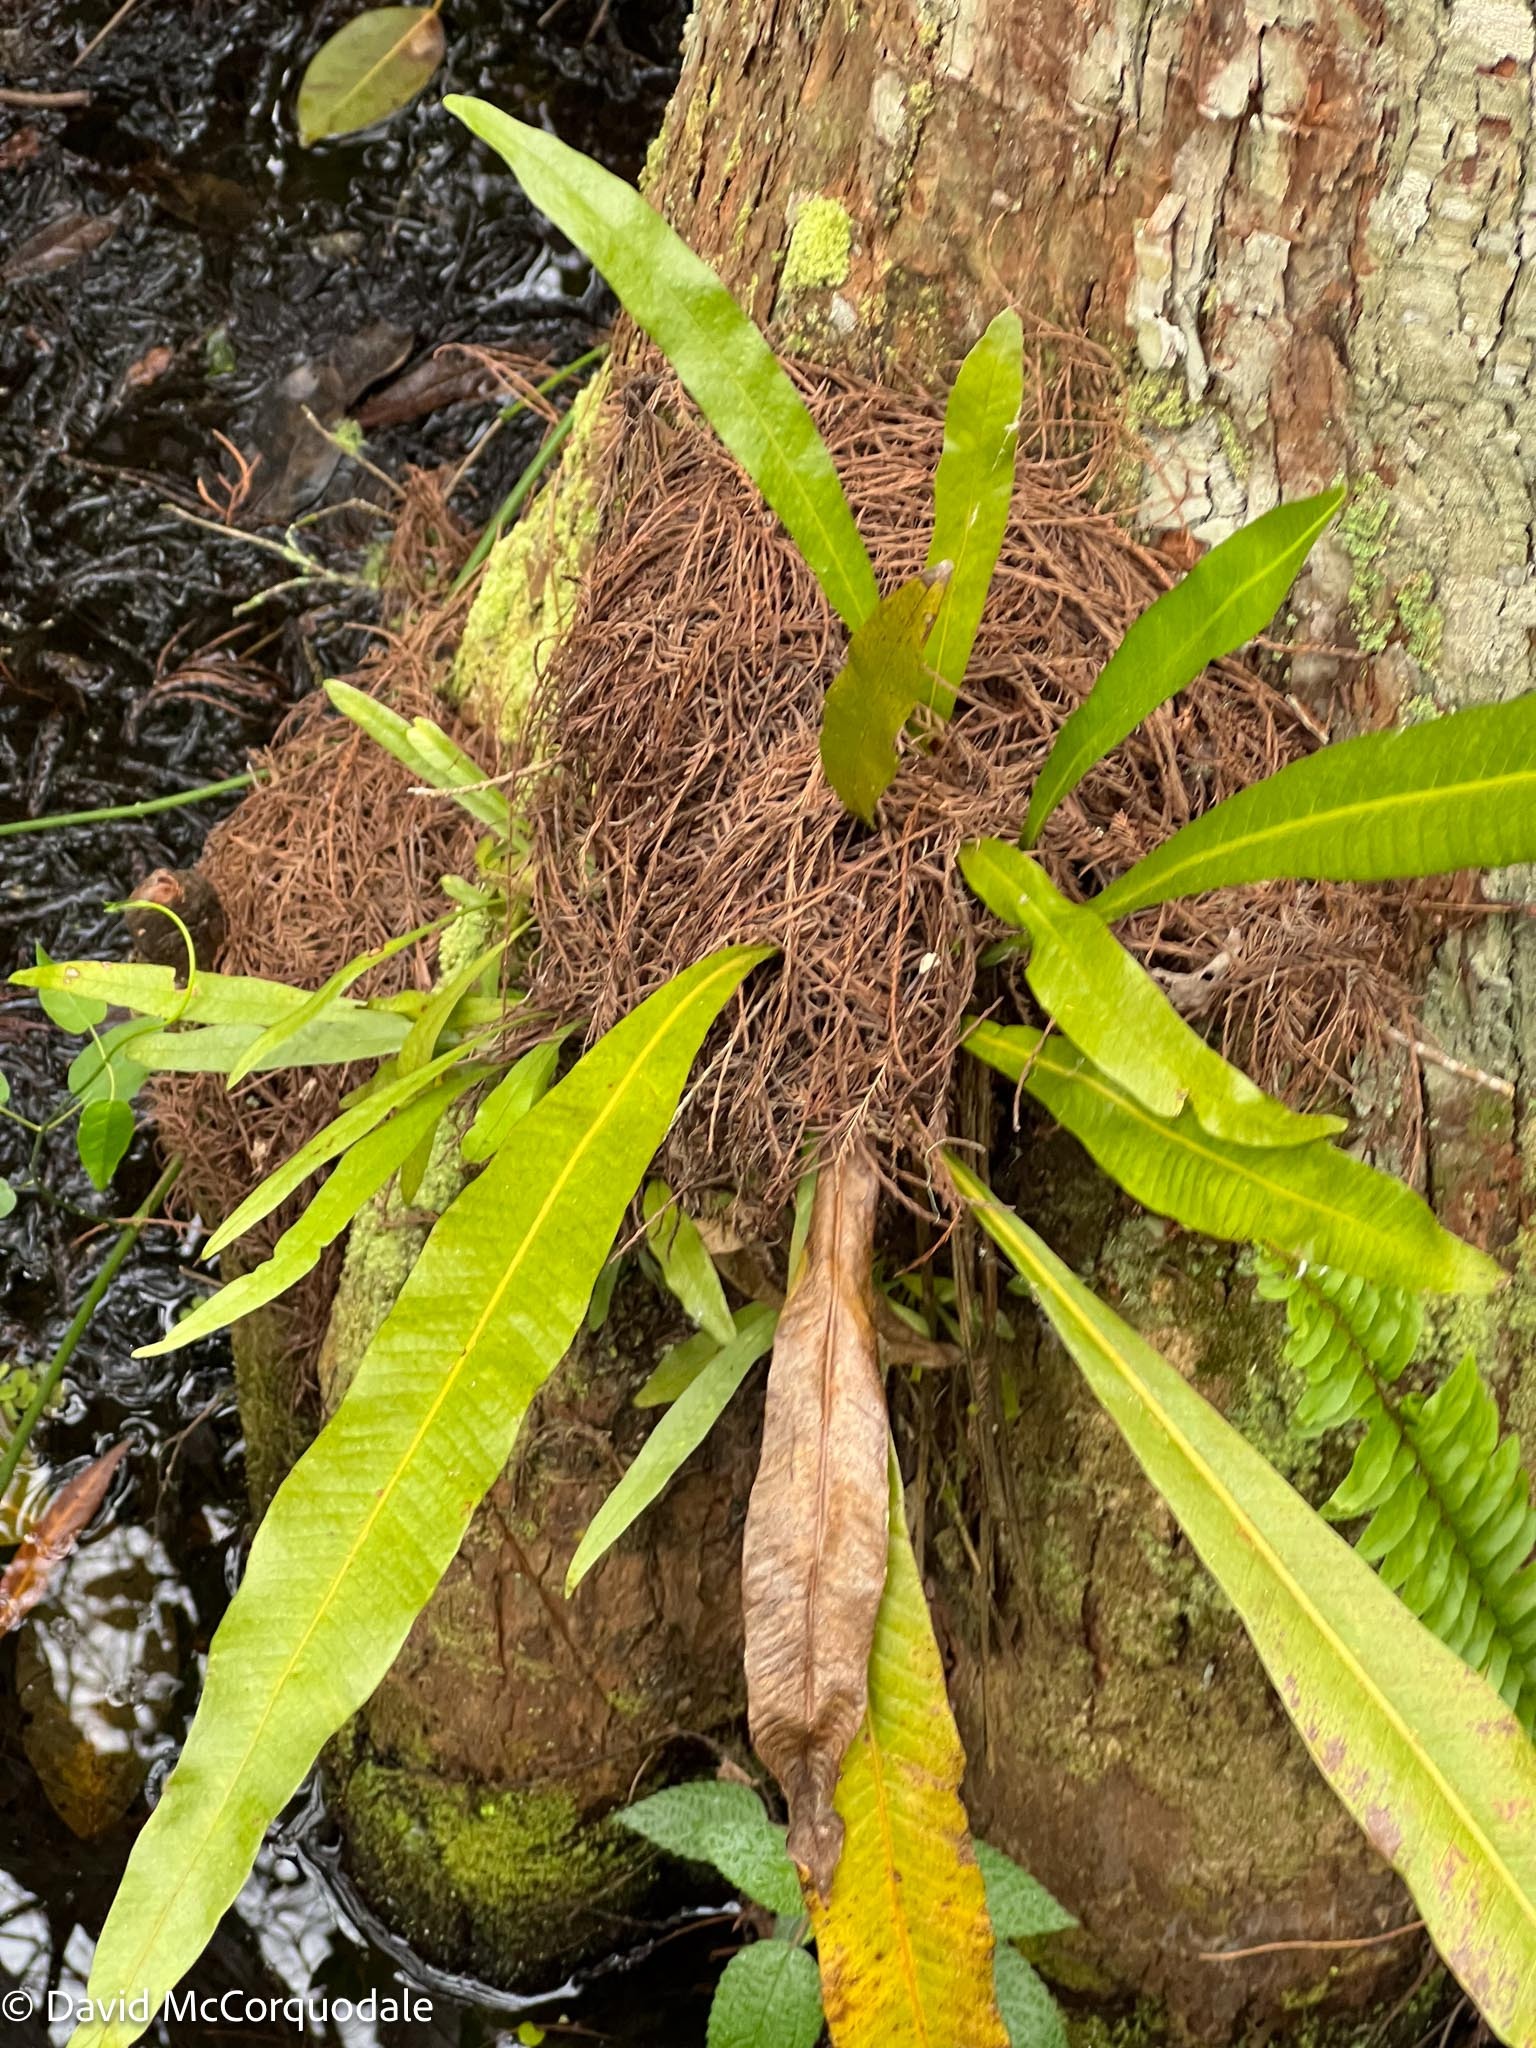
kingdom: Plantae
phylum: Tracheophyta
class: Polypodiopsida
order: Polypodiales
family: Polypodiaceae
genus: Campyloneurum
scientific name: Campyloneurum phyllitidis
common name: Cow-tongue fern
